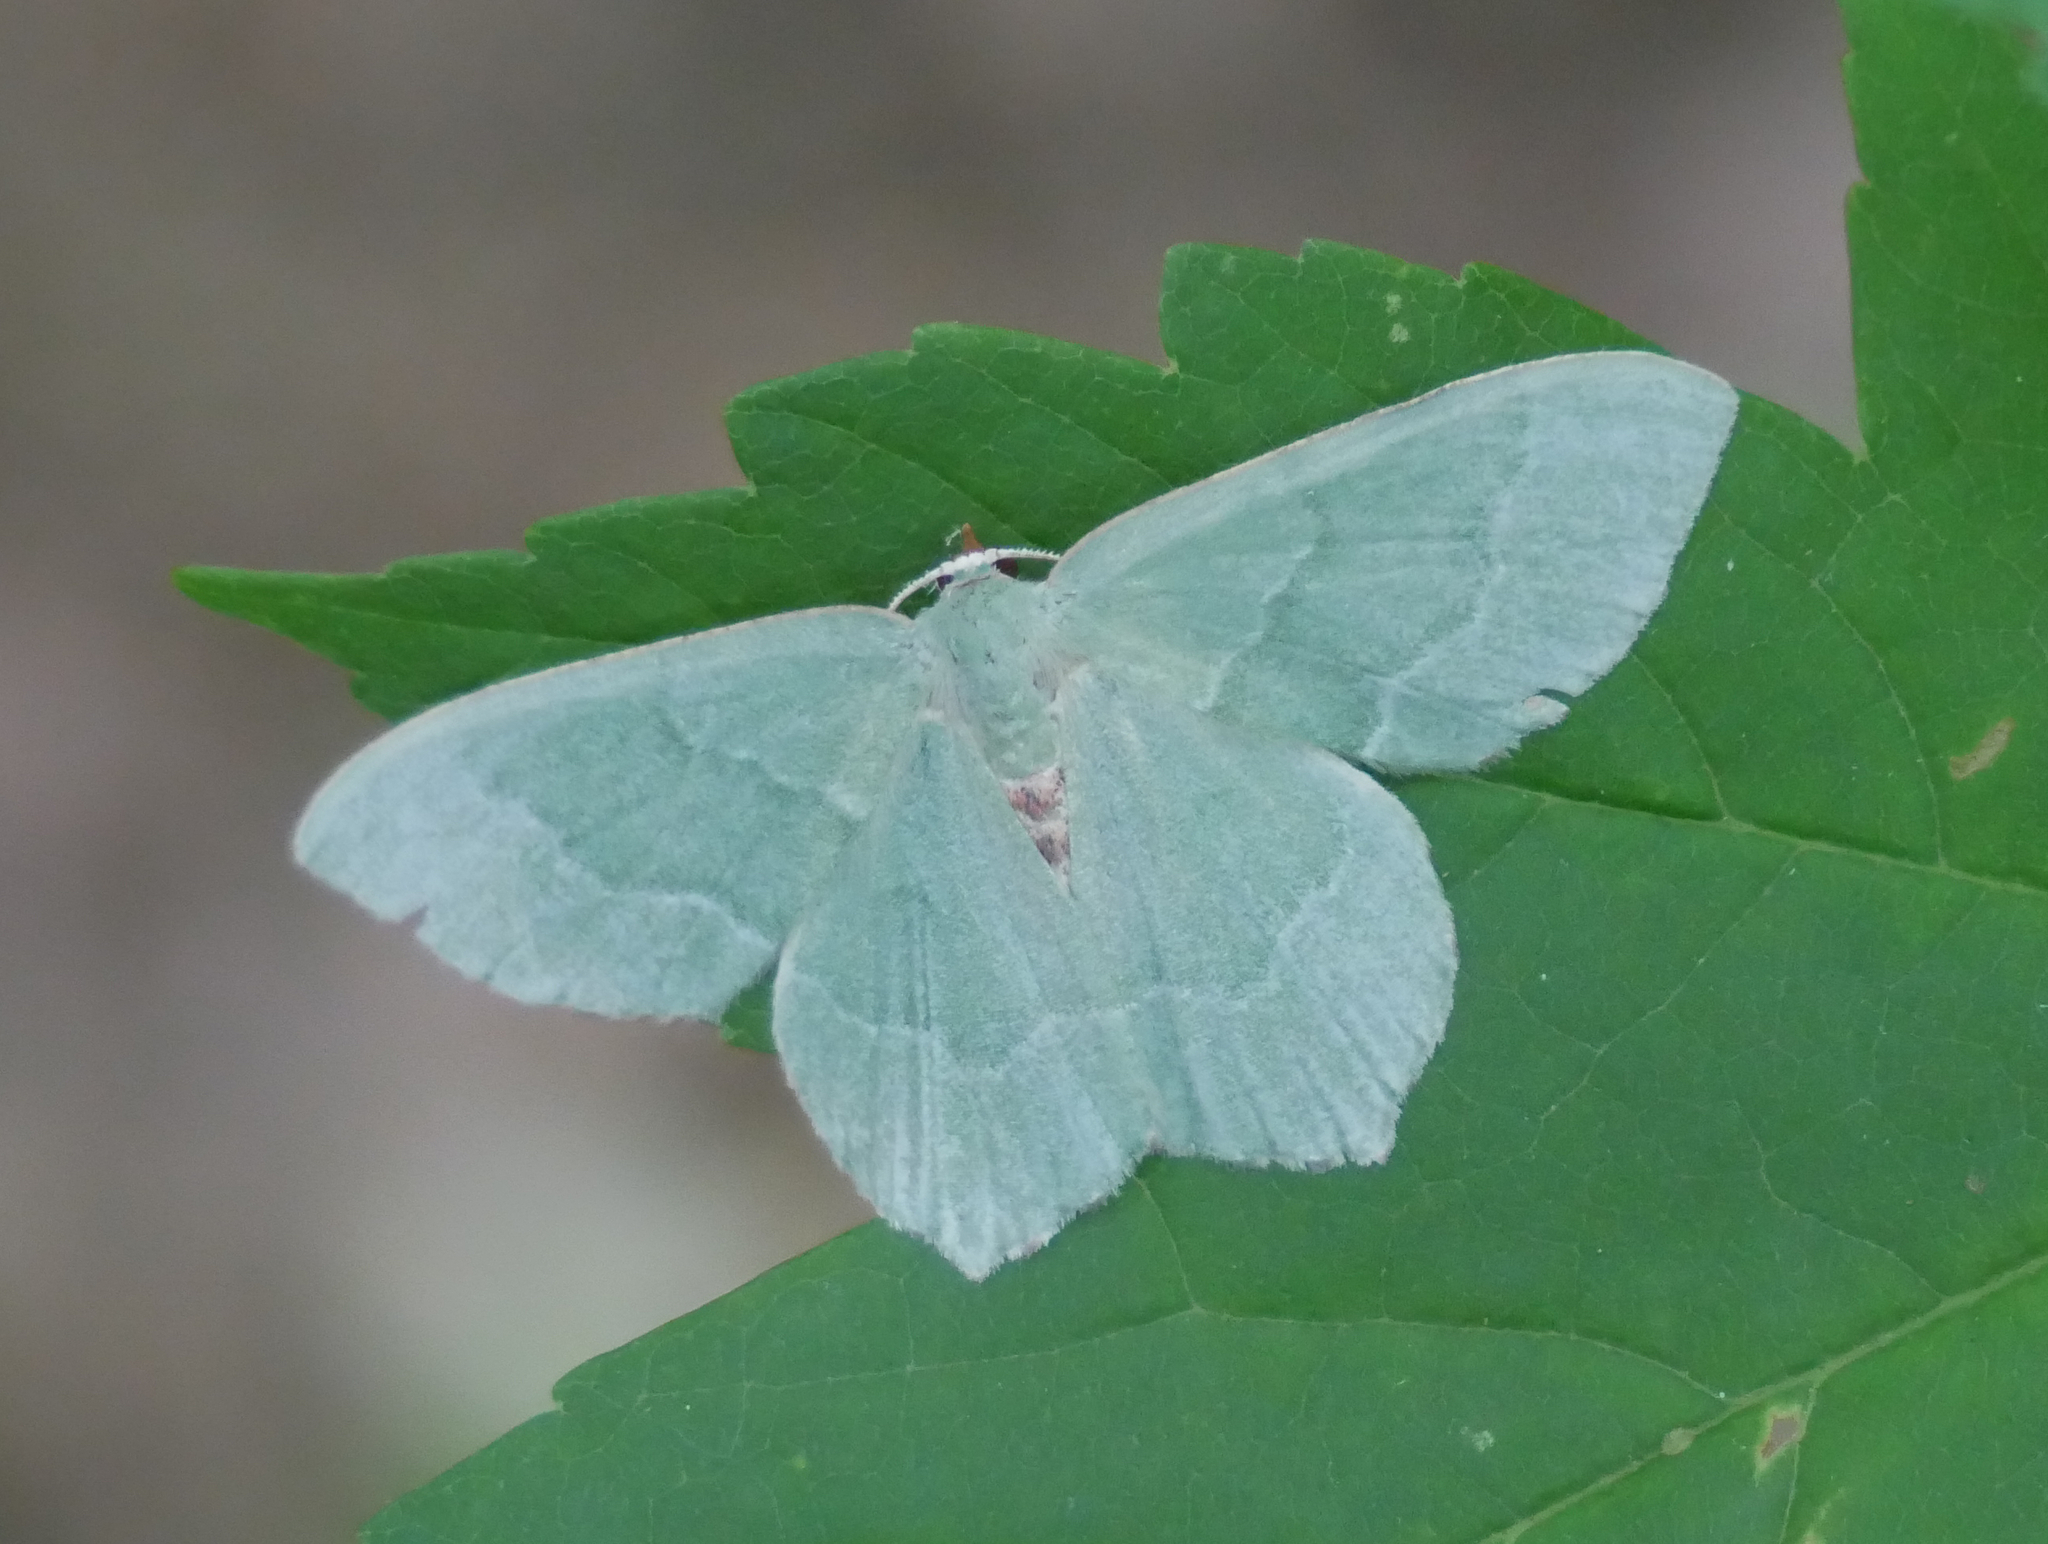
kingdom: Animalia
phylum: Arthropoda
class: Insecta
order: Lepidoptera
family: Geometridae
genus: Hemithea
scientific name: Hemithea aestivaria
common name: Common emerald
